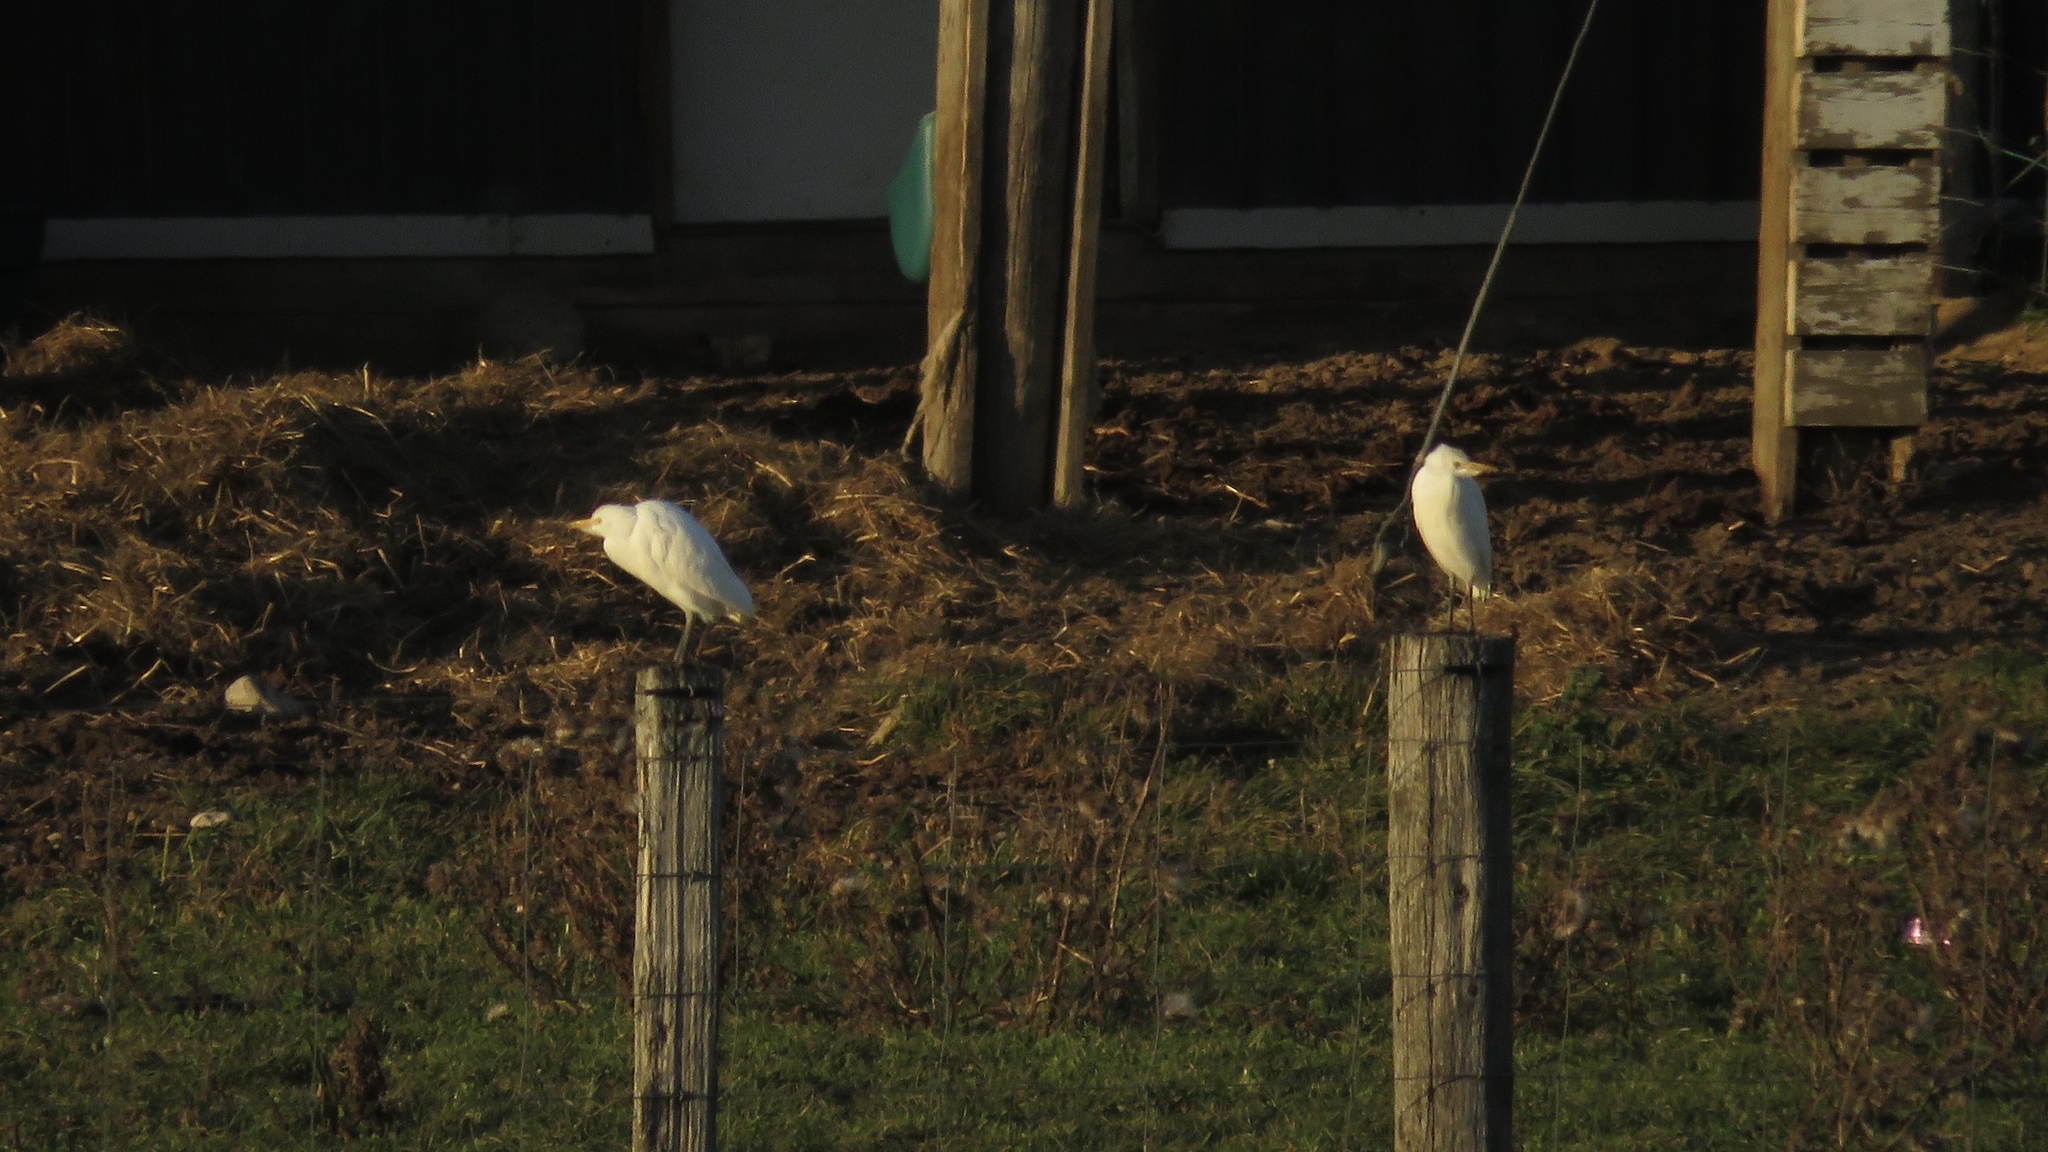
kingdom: Animalia
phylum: Chordata
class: Aves
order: Pelecaniformes
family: Ardeidae
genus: Bubulcus
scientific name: Bubulcus ibis
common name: Cattle egret
